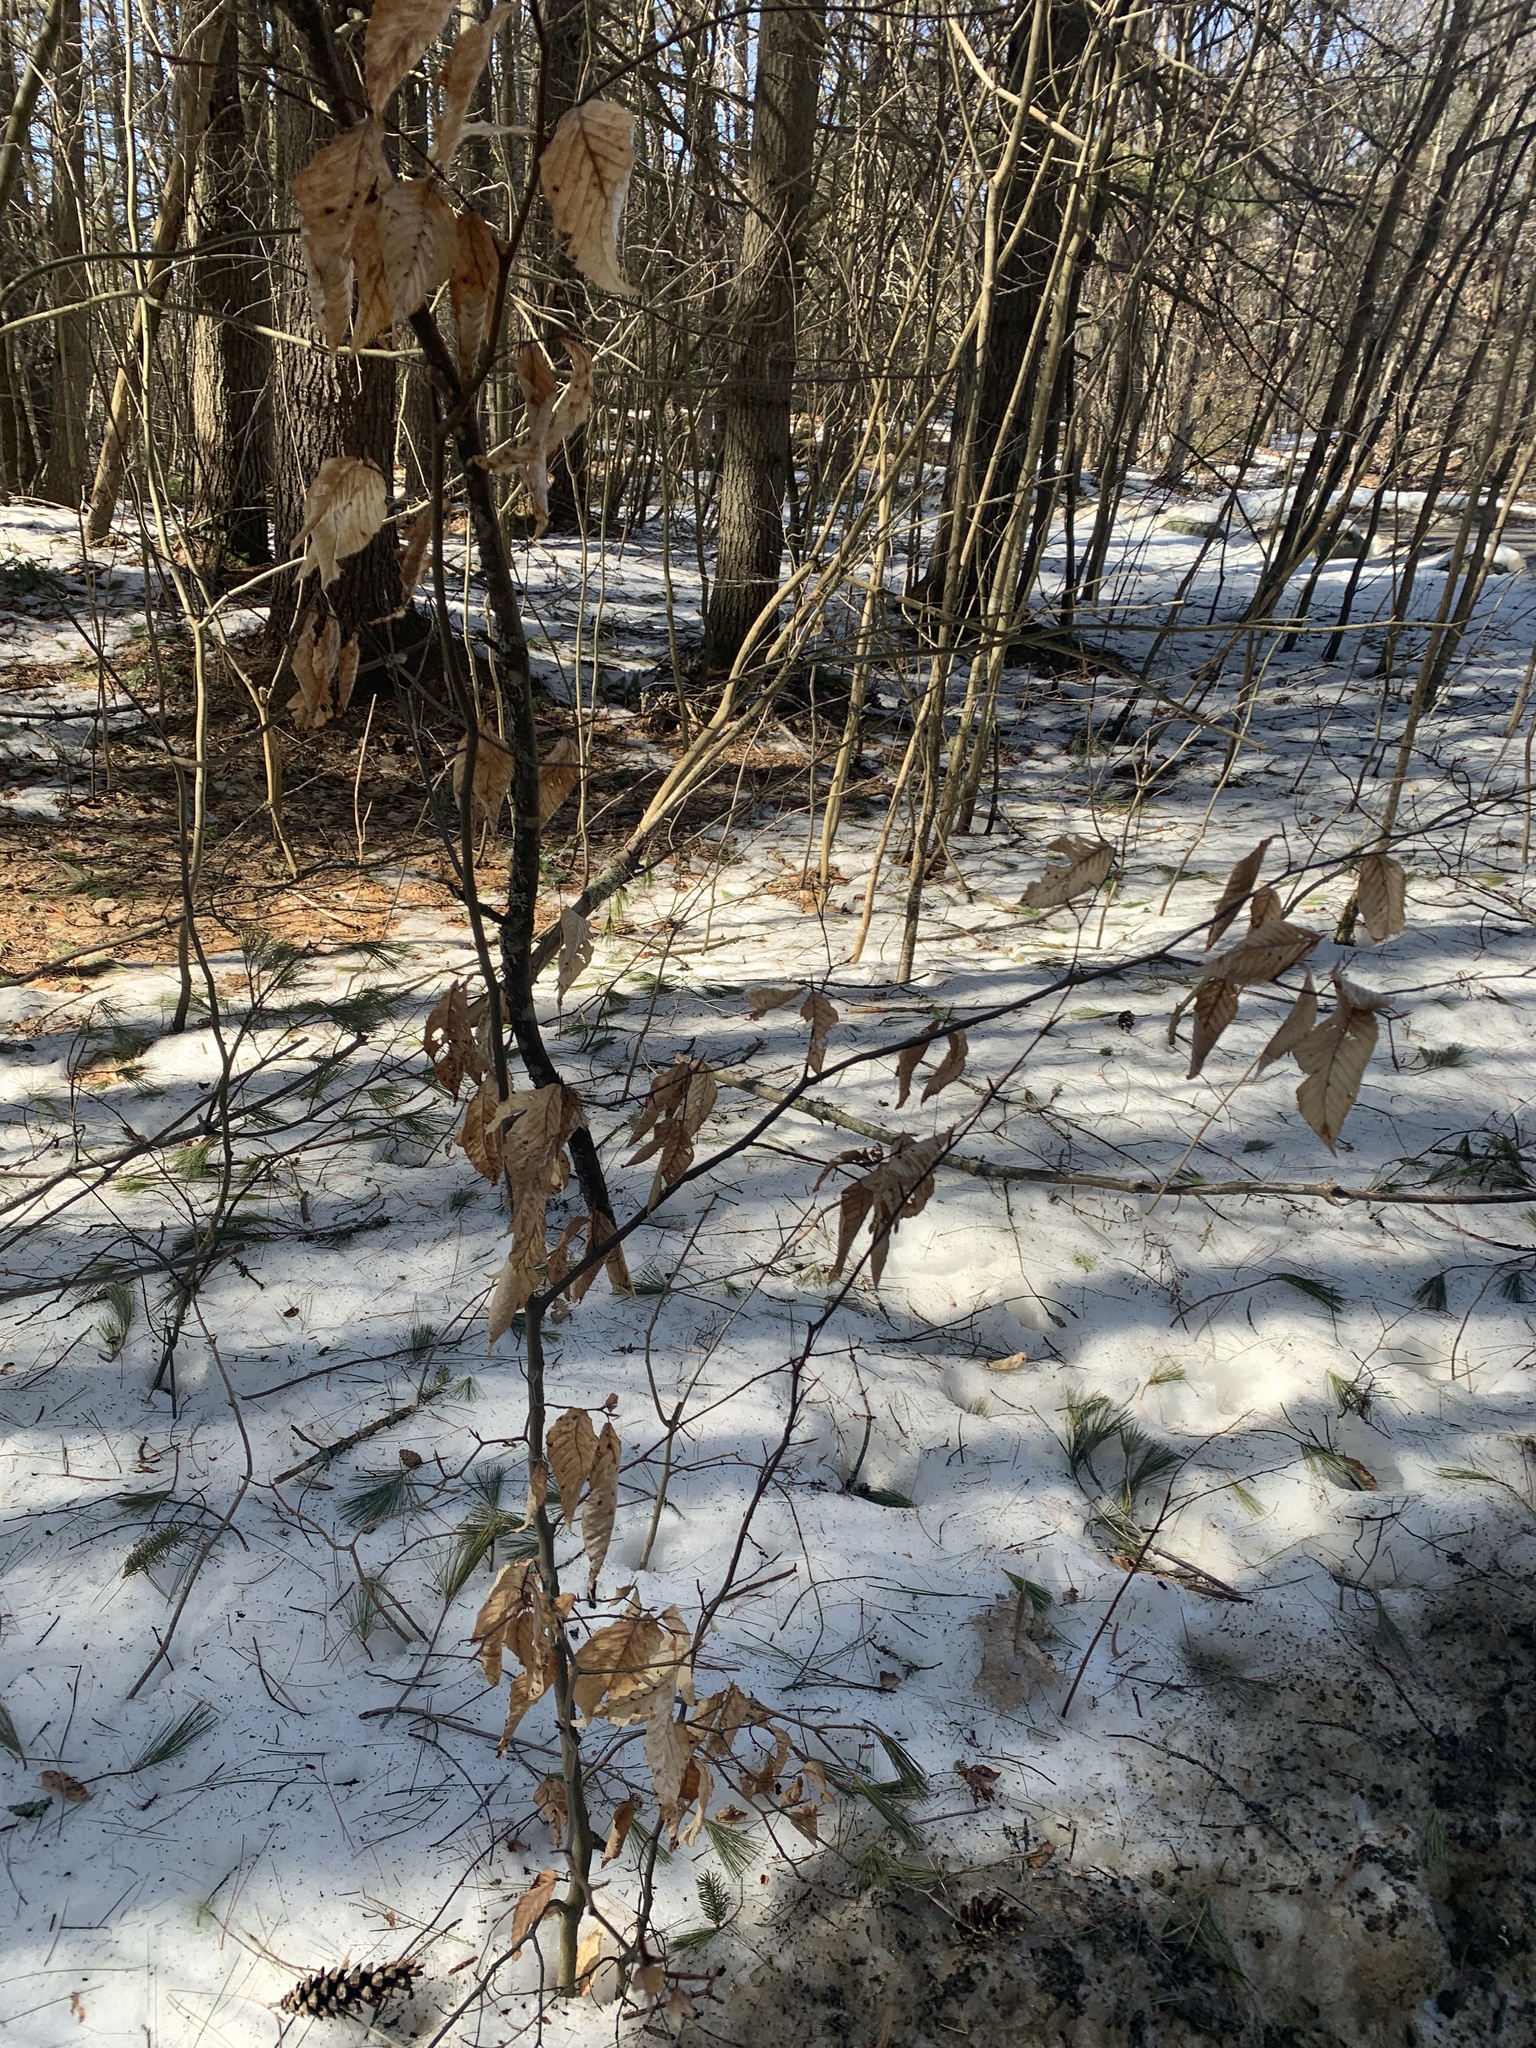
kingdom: Plantae
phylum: Tracheophyta
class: Magnoliopsida
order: Fagales
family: Fagaceae
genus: Fagus
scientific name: Fagus grandifolia
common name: American beech
